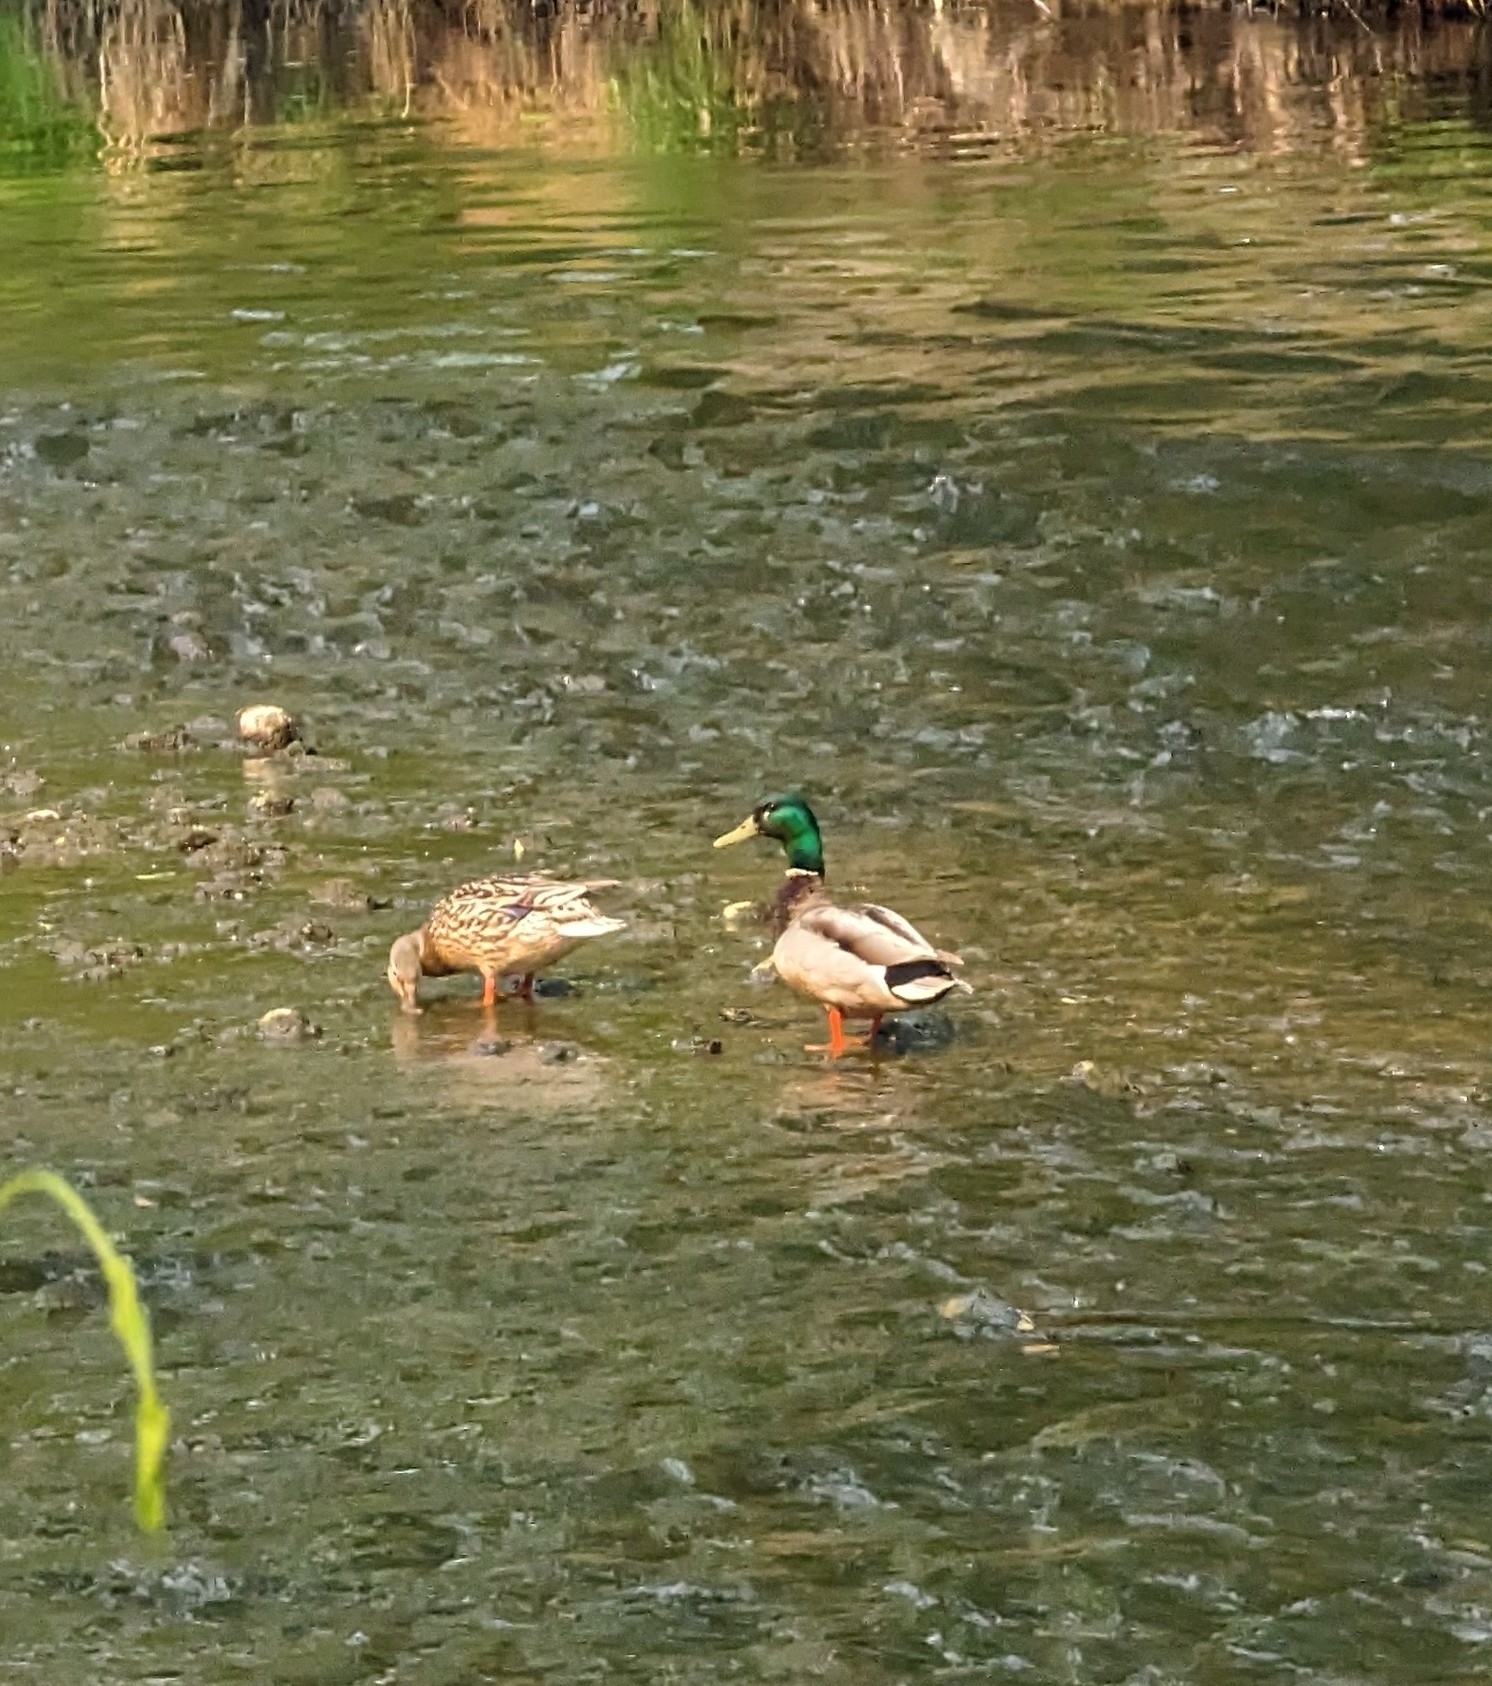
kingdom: Animalia
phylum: Chordata
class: Aves
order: Anseriformes
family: Anatidae
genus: Anas
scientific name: Anas platyrhynchos
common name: Mallard
